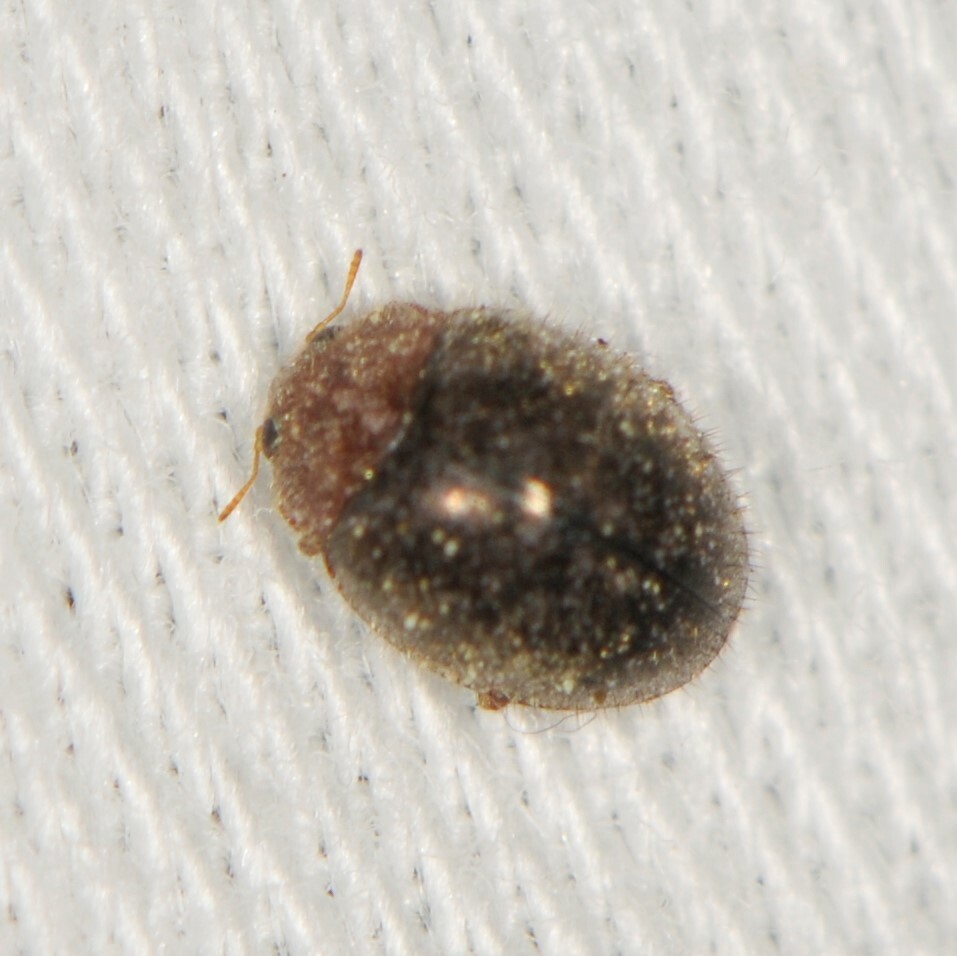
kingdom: Animalia
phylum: Arthropoda
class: Insecta
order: Coleoptera
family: Coccinellidae
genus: Rhyzobius
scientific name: Rhyzobius lophanthae
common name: Scale-eating ladybird beetle
